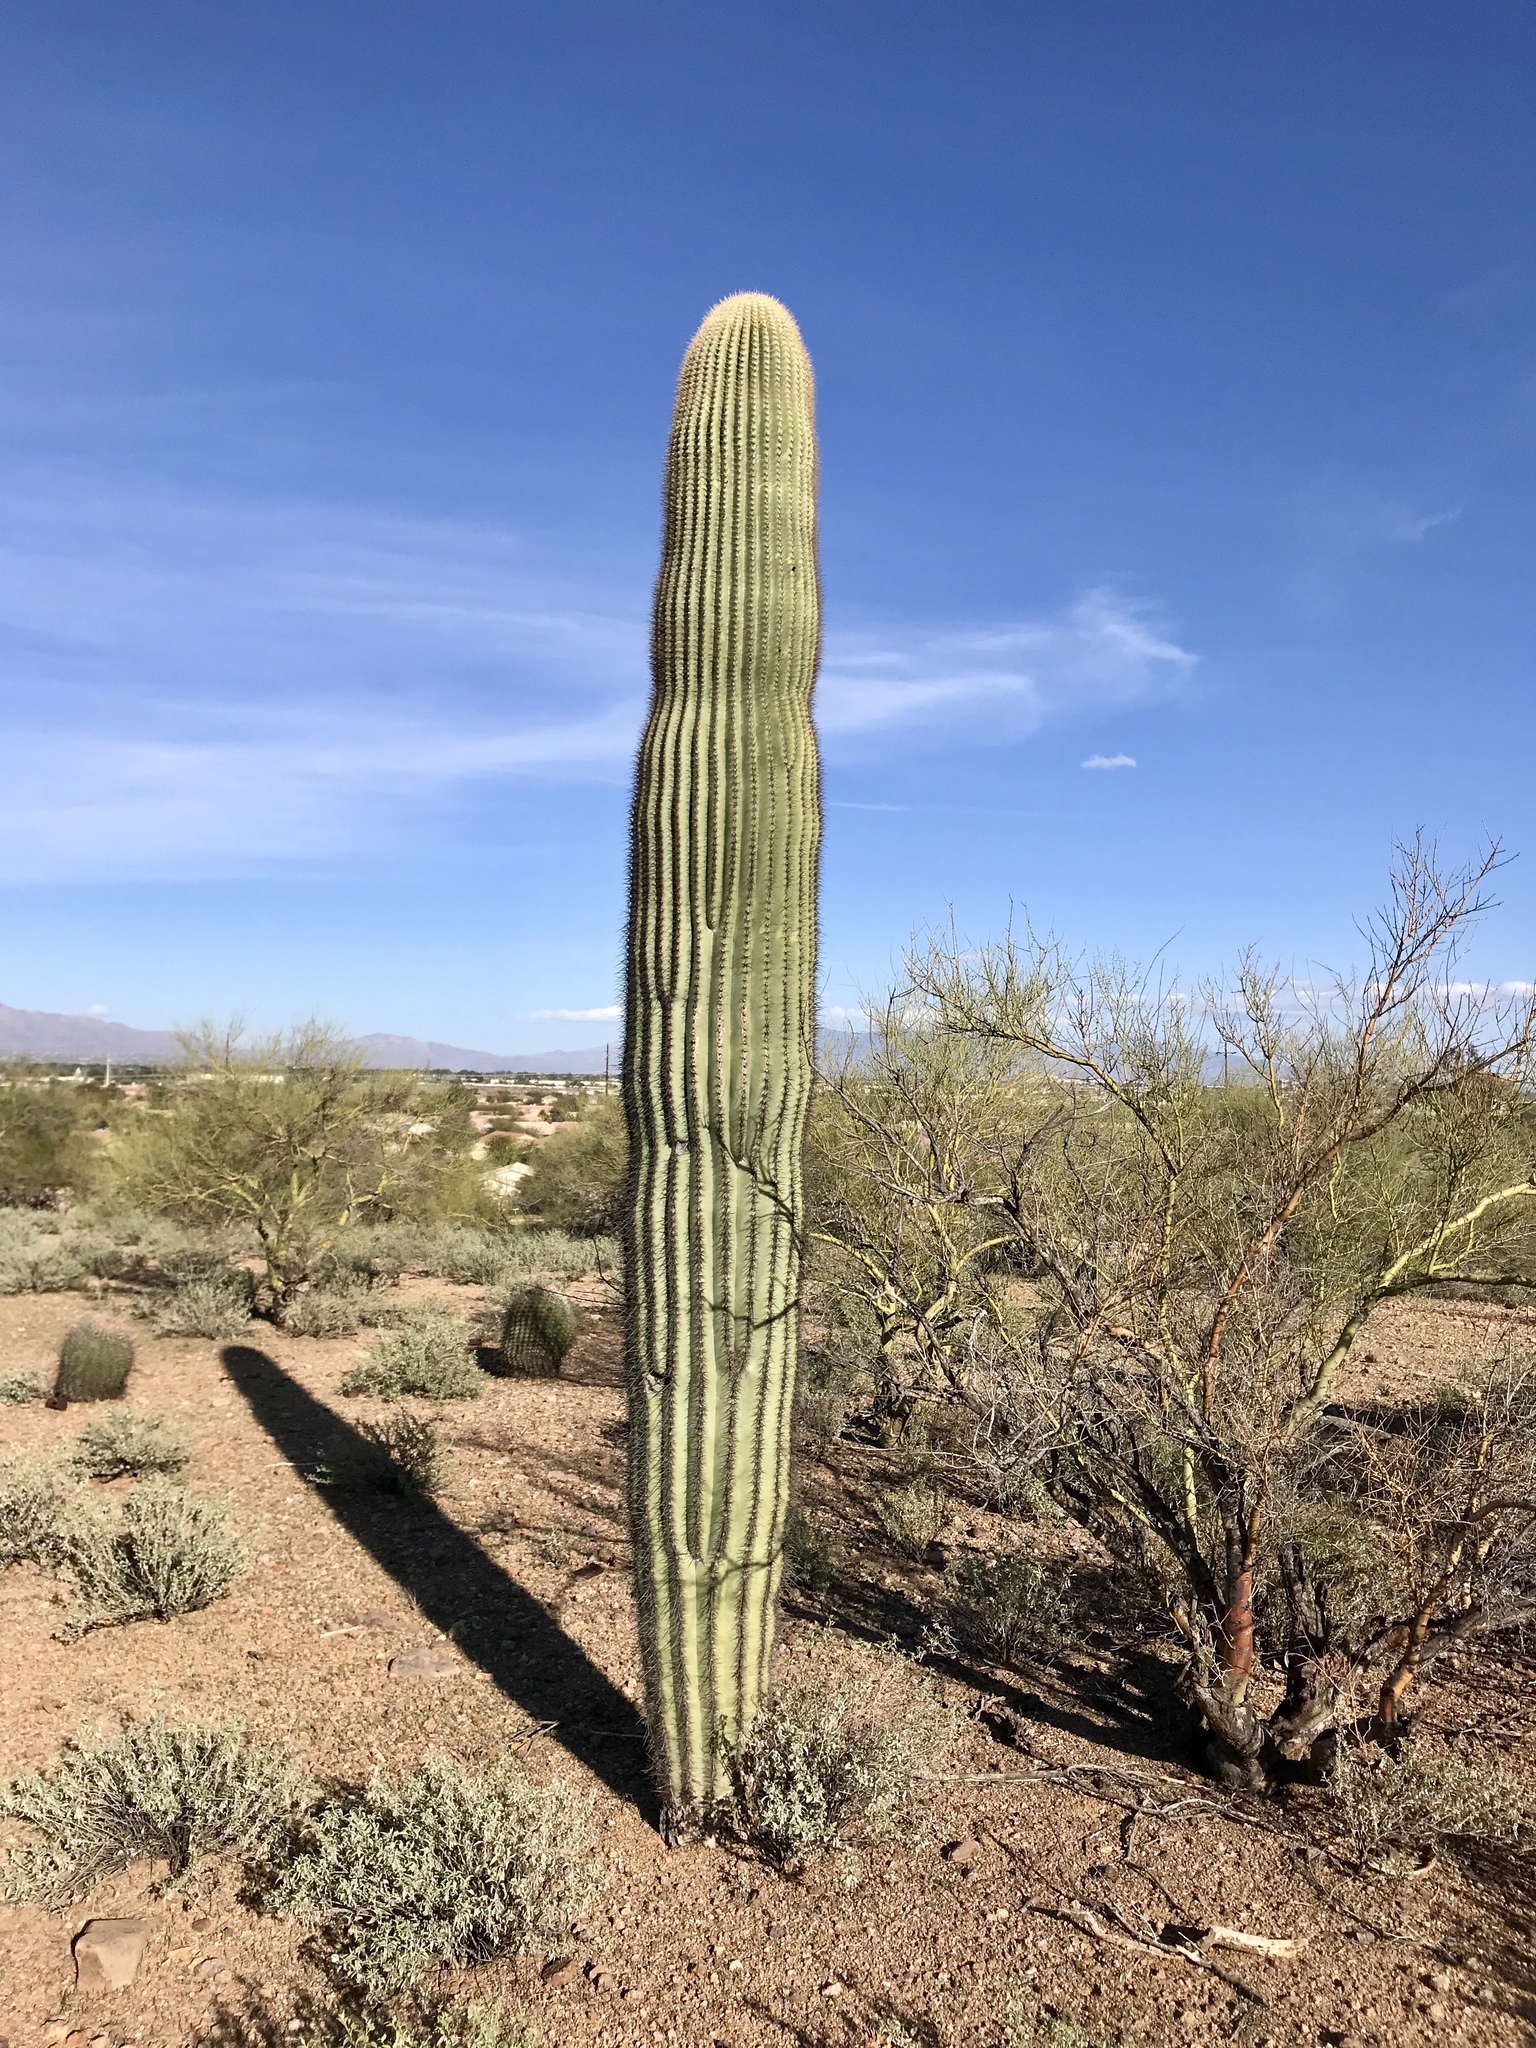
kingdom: Plantae
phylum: Tracheophyta
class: Magnoliopsida
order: Caryophyllales
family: Cactaceae
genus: Carnegiea
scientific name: Carnegiea gigantea
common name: Saguaro
